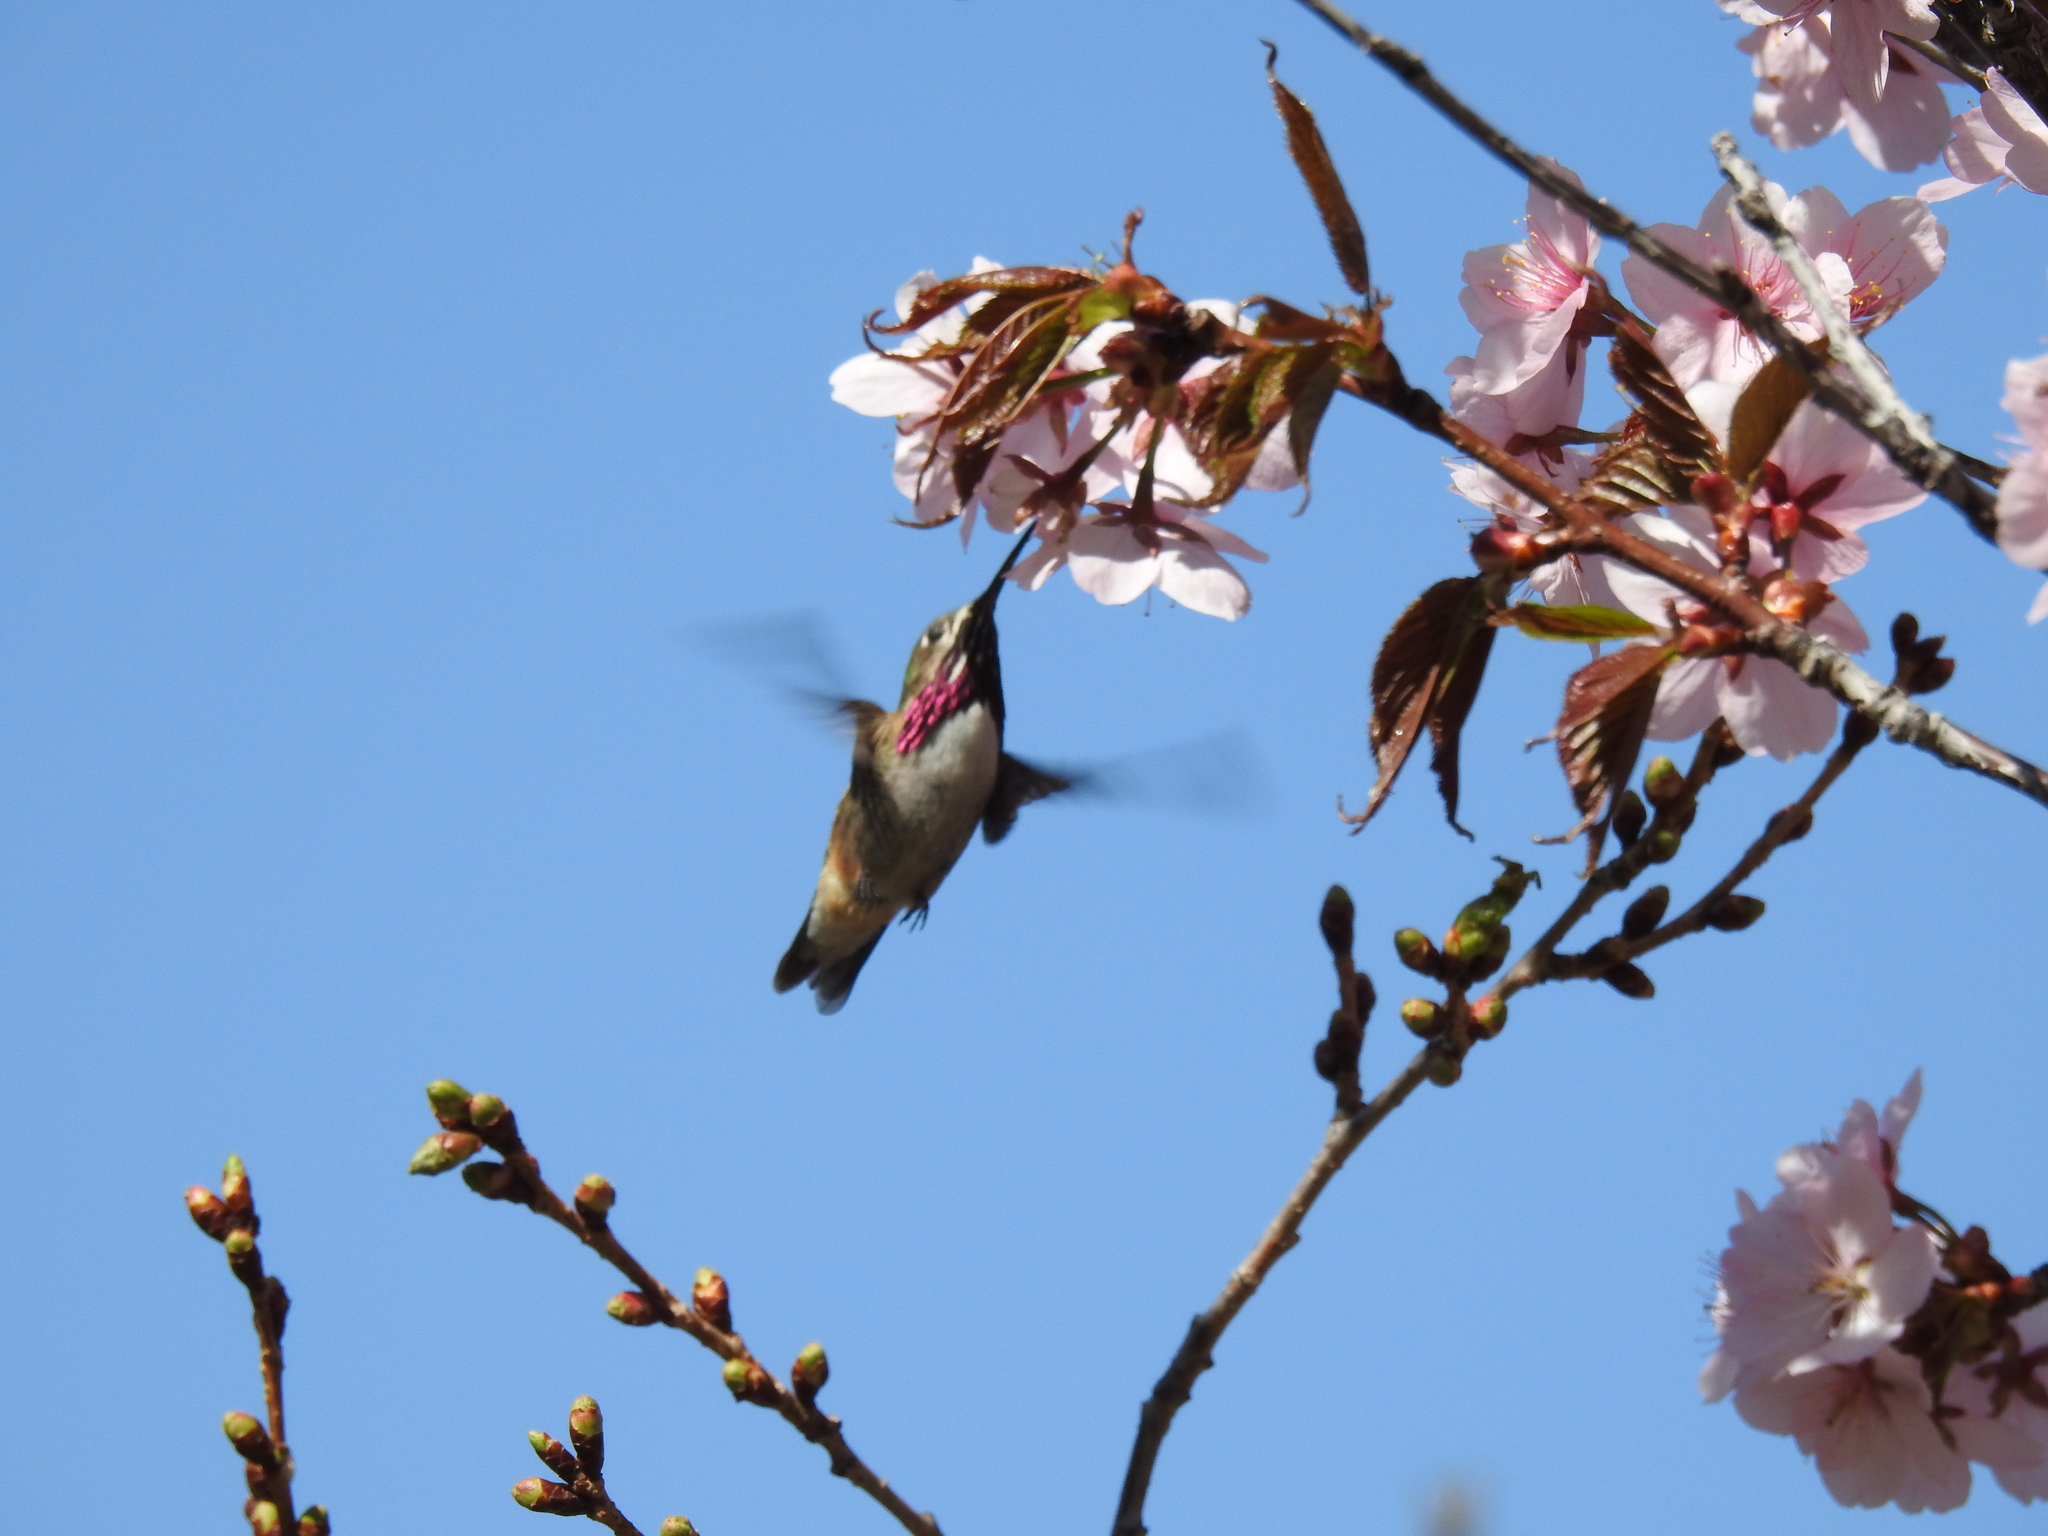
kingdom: Animalia
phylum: Chordata
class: Aves
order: Apodiformes
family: Trochilidae
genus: Selasphorus
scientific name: Selasphorus calliope
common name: Calliope hummingbird
